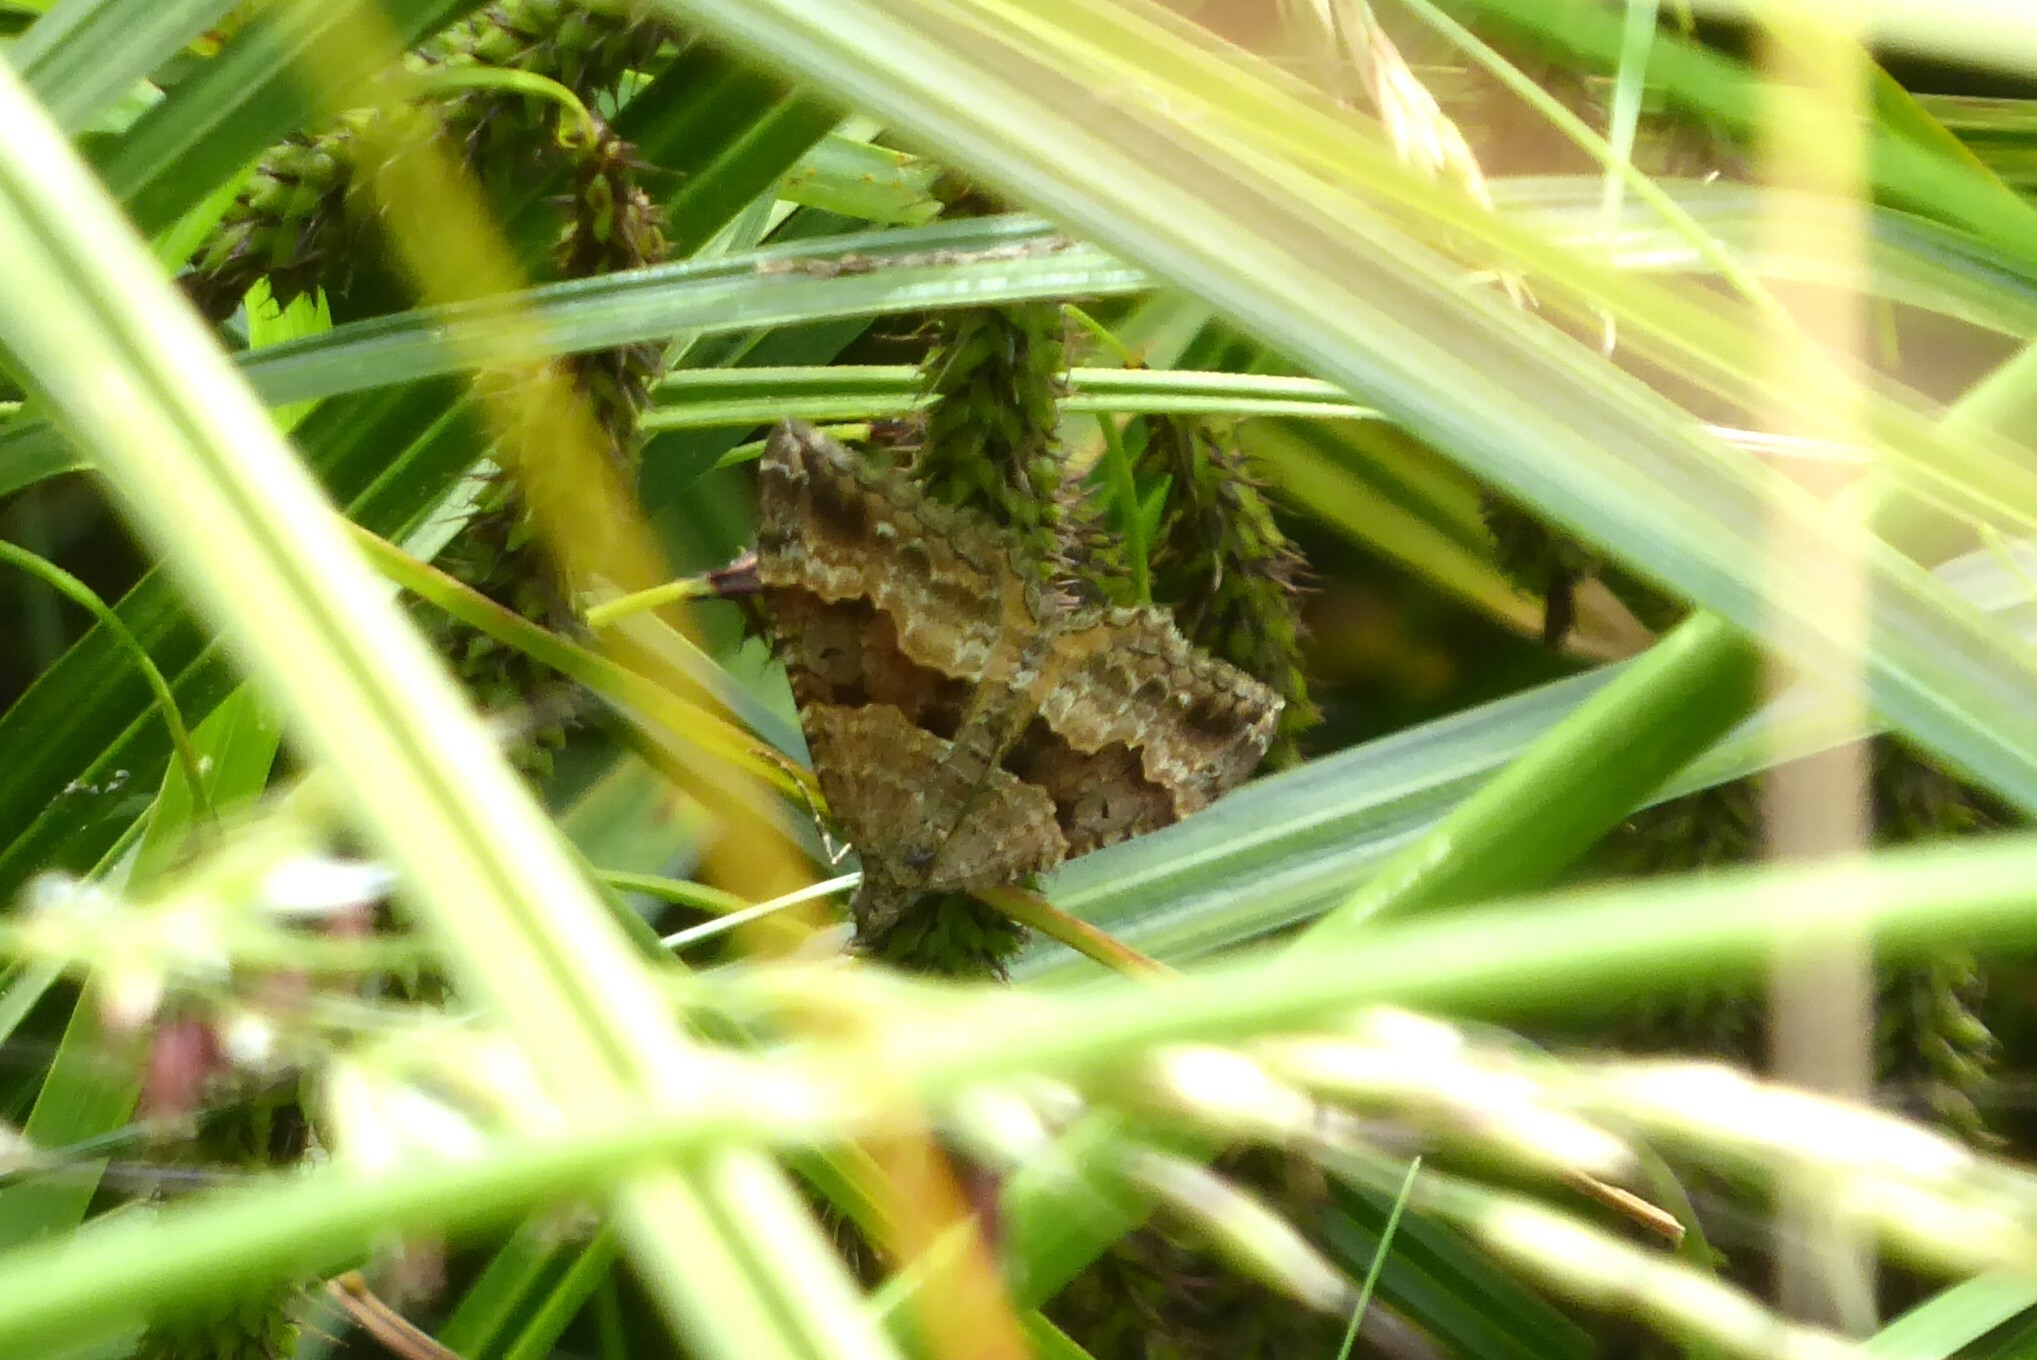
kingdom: Animalia
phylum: Arthropoda
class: Insecta
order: Lepidoptera
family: Geometridae
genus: Hydriomena
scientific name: Hydriomena deltoidata
